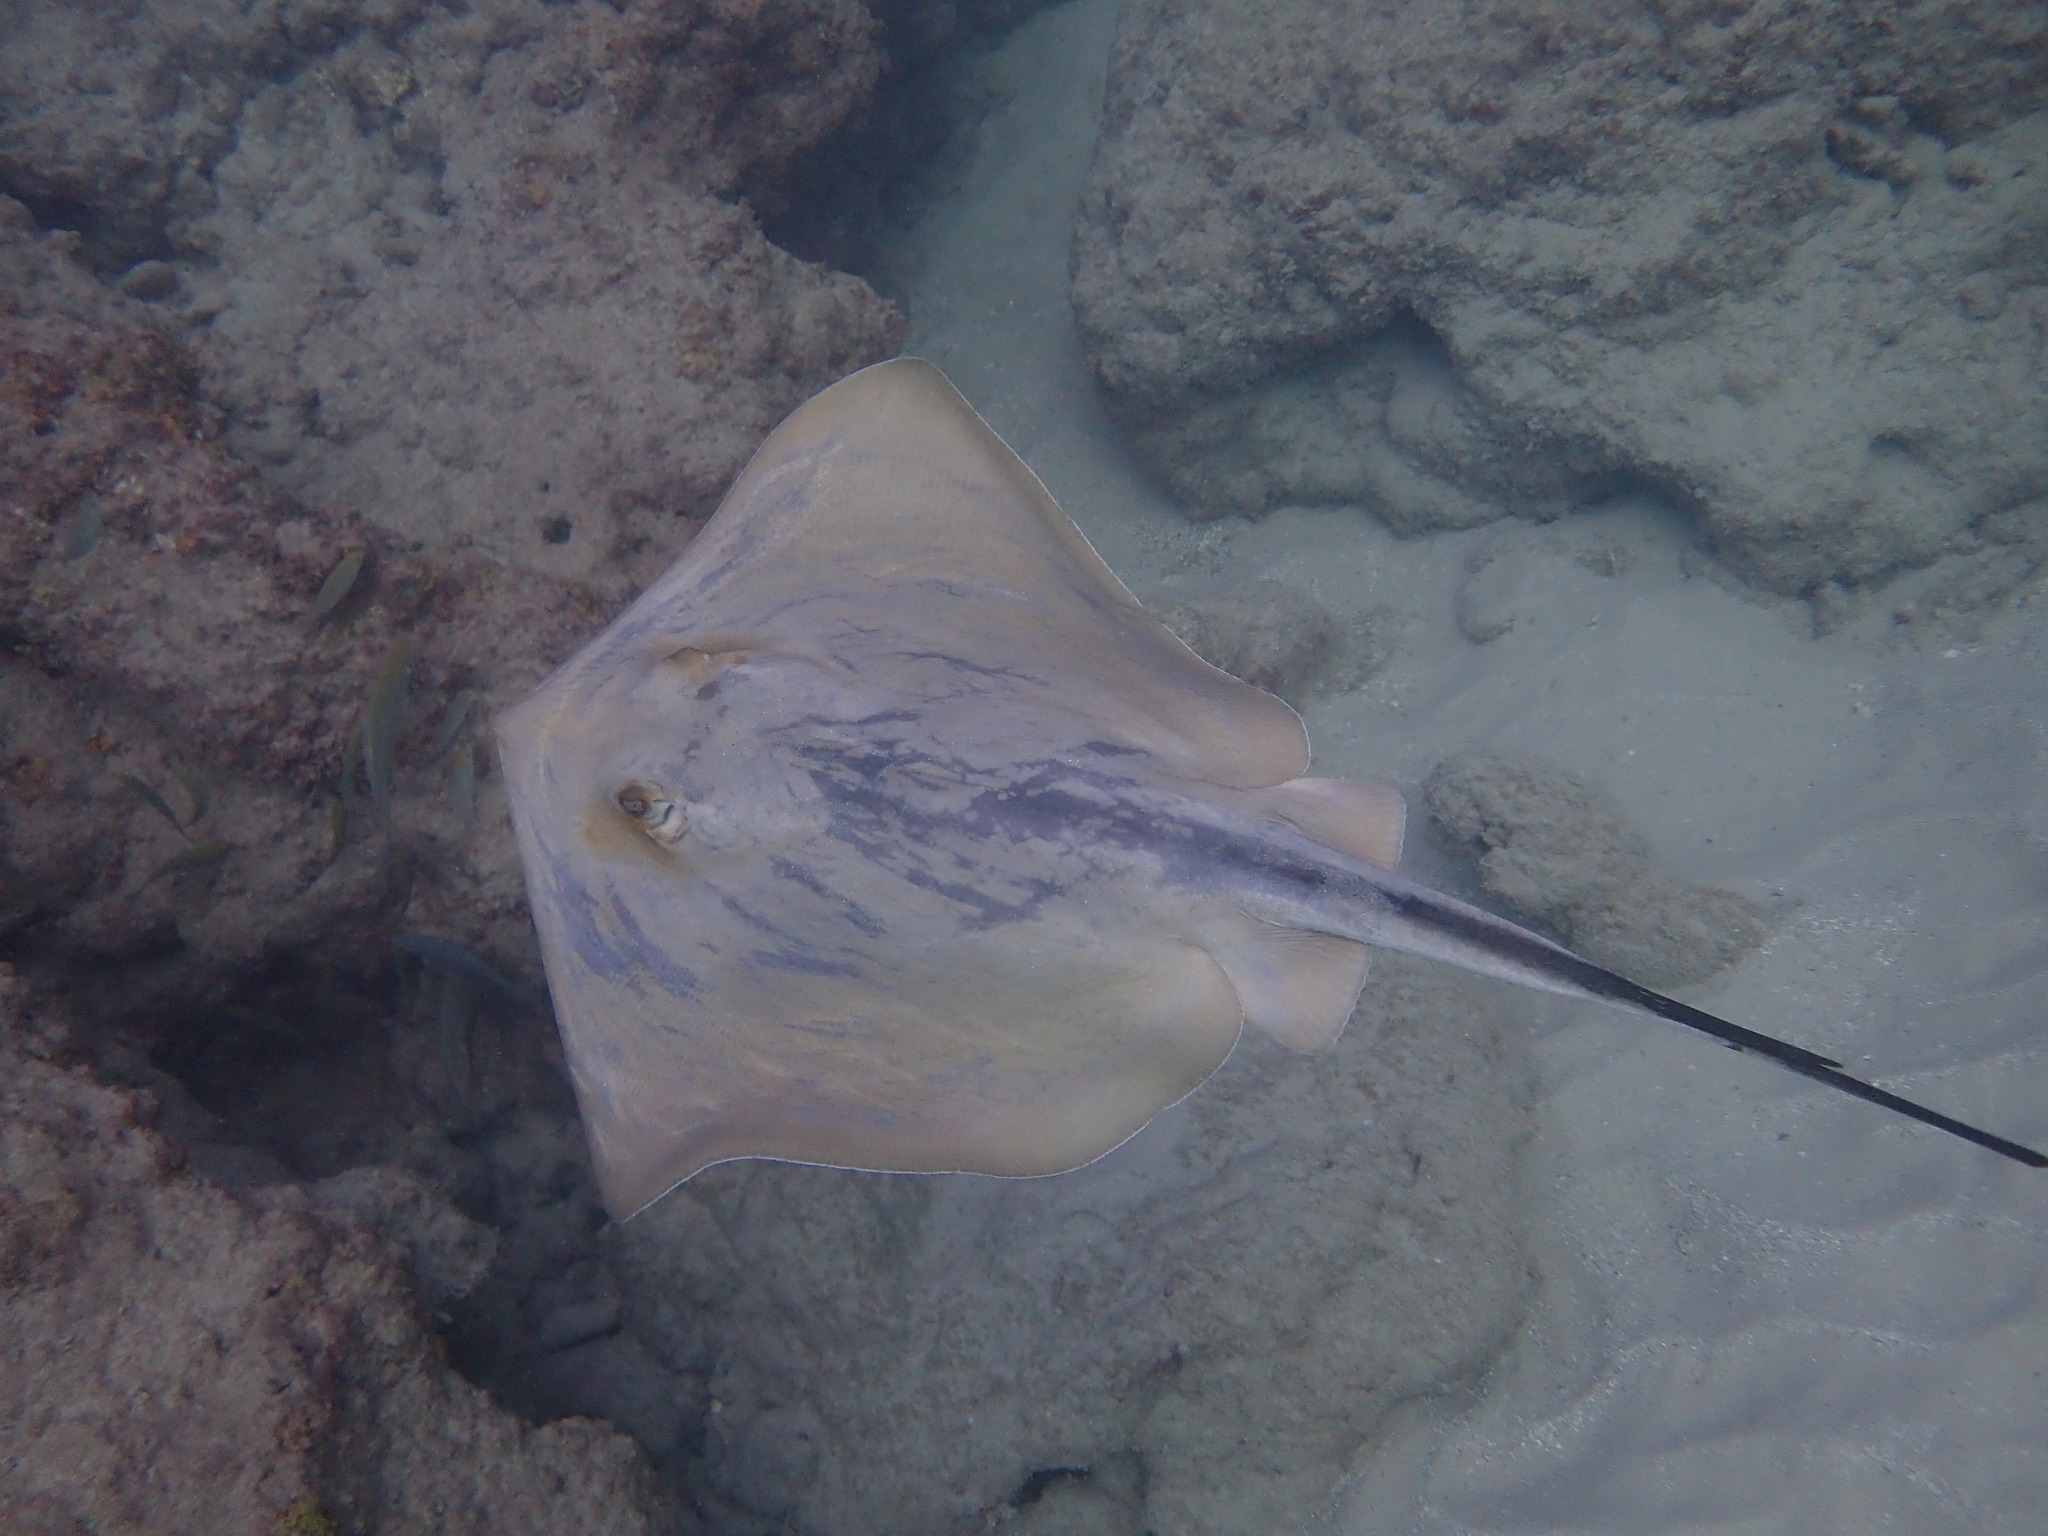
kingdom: Animalia
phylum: Chordata
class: Elasmobranchii
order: Myliobatiformes
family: Dasyatidae
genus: Dasyatis
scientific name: Dasyatis pastinaca
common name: Common stingray
